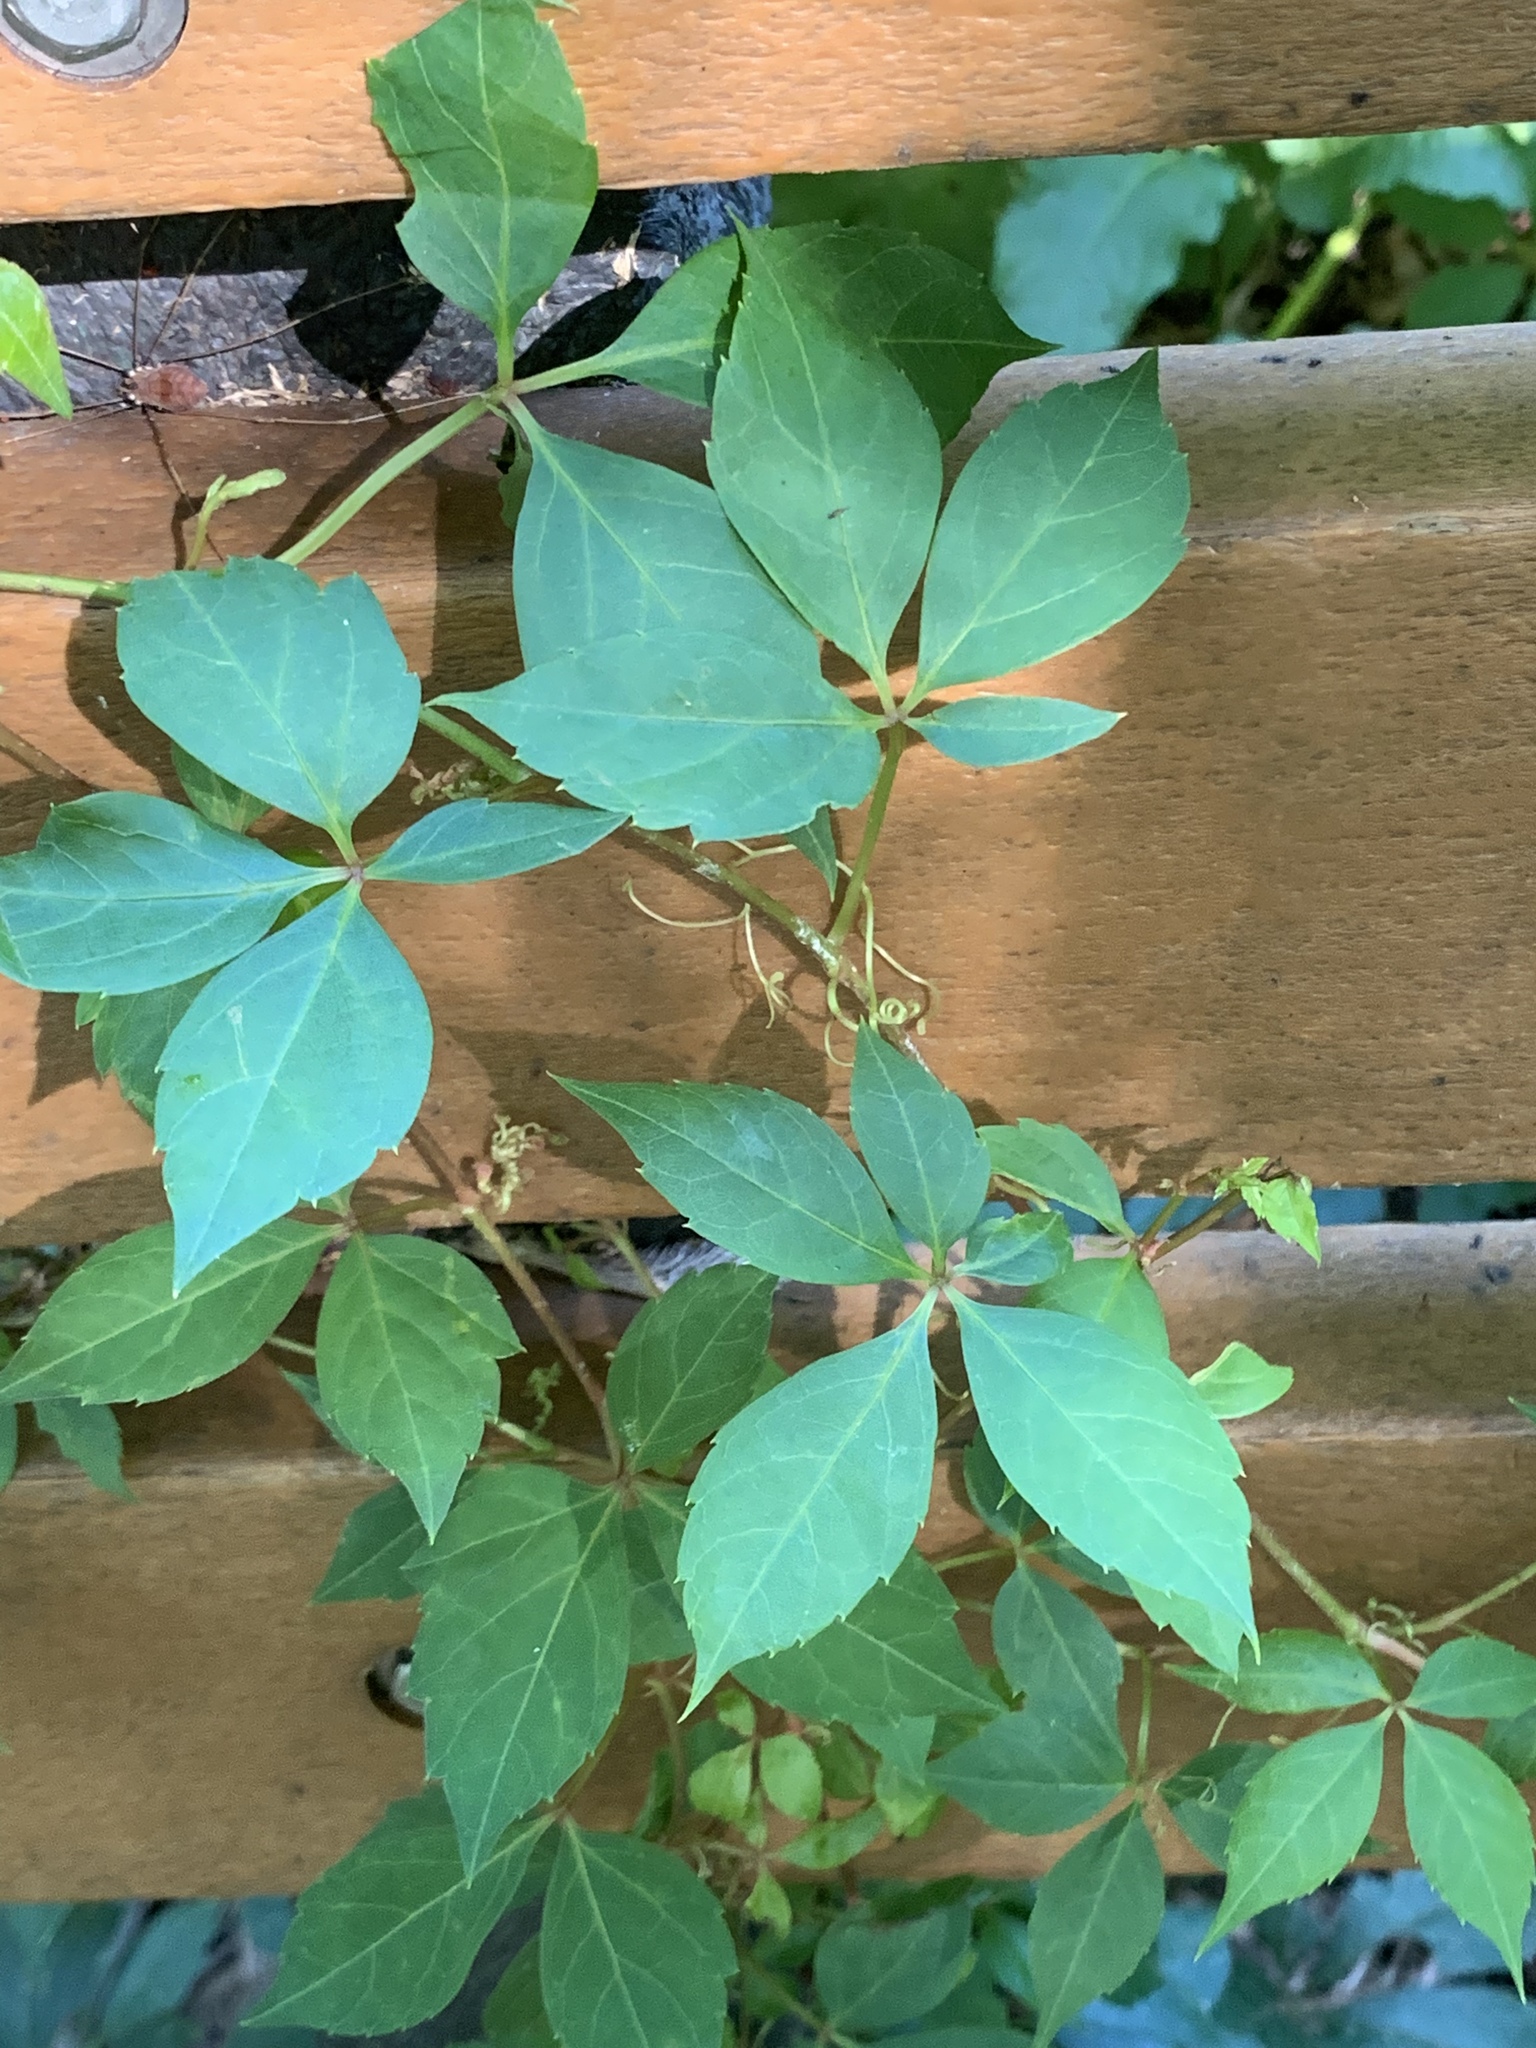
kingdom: Plantae
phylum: Tracheophyta
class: Magnoliopsida
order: Vitales
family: Vitaceae
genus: Parthenocissus
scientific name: Parthenocissus quinquefolia
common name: Virginia-creeper
